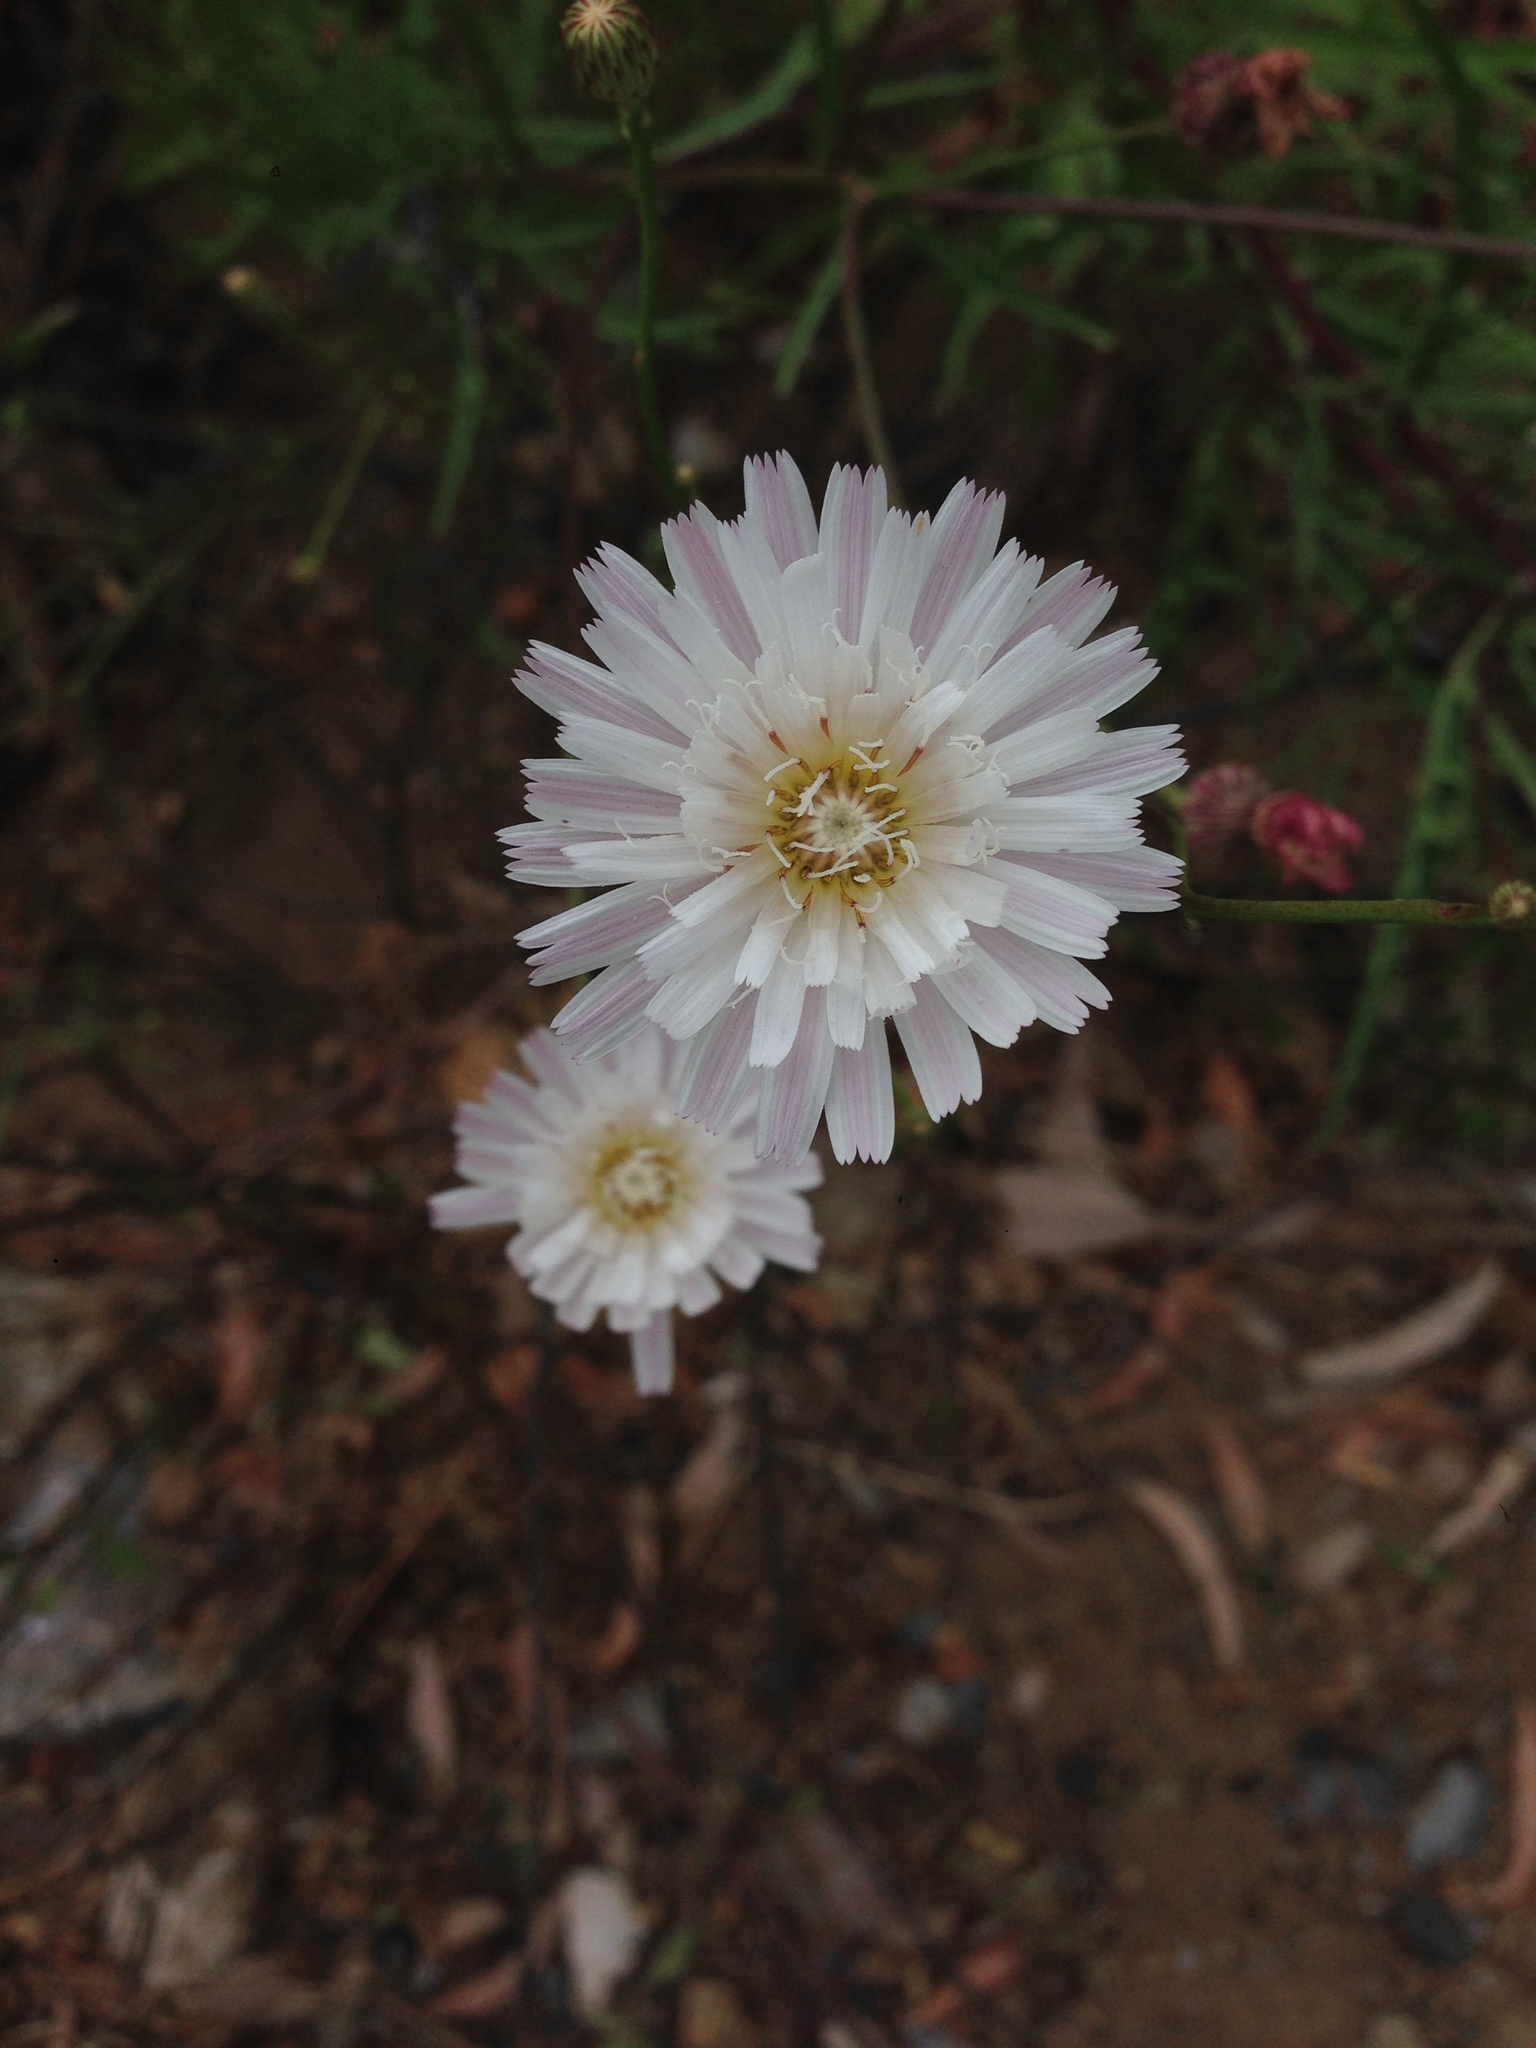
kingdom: Plantae
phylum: Tracheophyta
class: Magnoliopsida
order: Asterales
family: Asteraceae
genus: Malacothrix
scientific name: Malacothrix saxatilis
